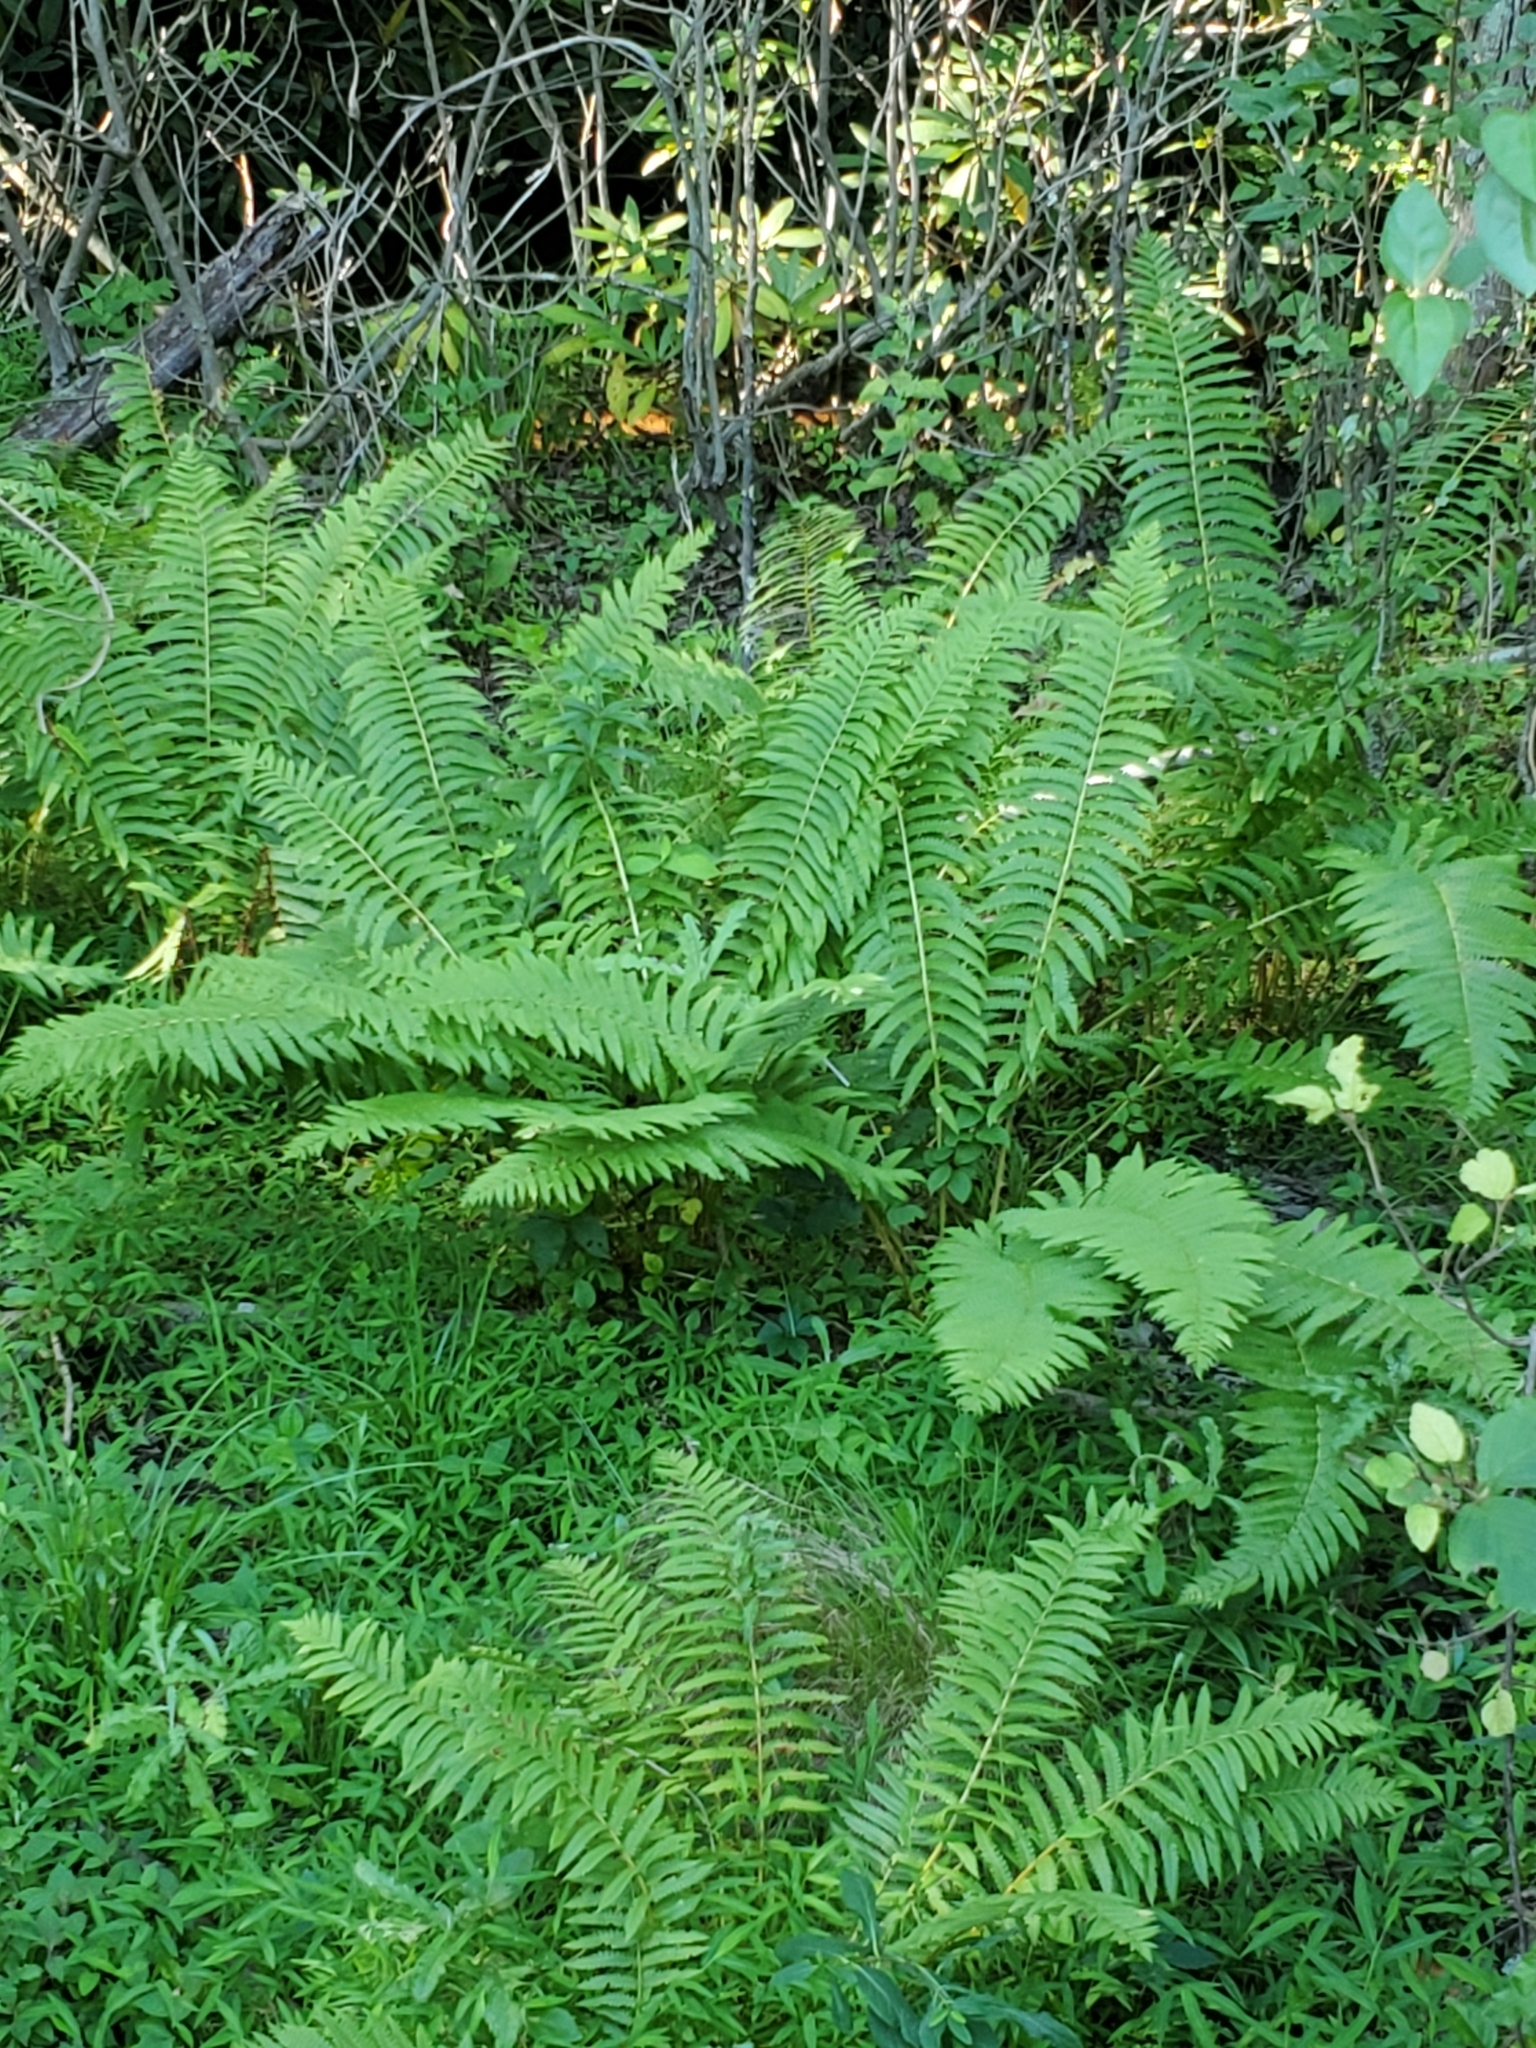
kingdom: Plantae
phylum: Tracheophyta
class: Polypodiopsida
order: Osmundales
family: Osmundaceae
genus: Osmundastrum
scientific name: Osmundastrum cinnamomeum
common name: Cinnamon fern
